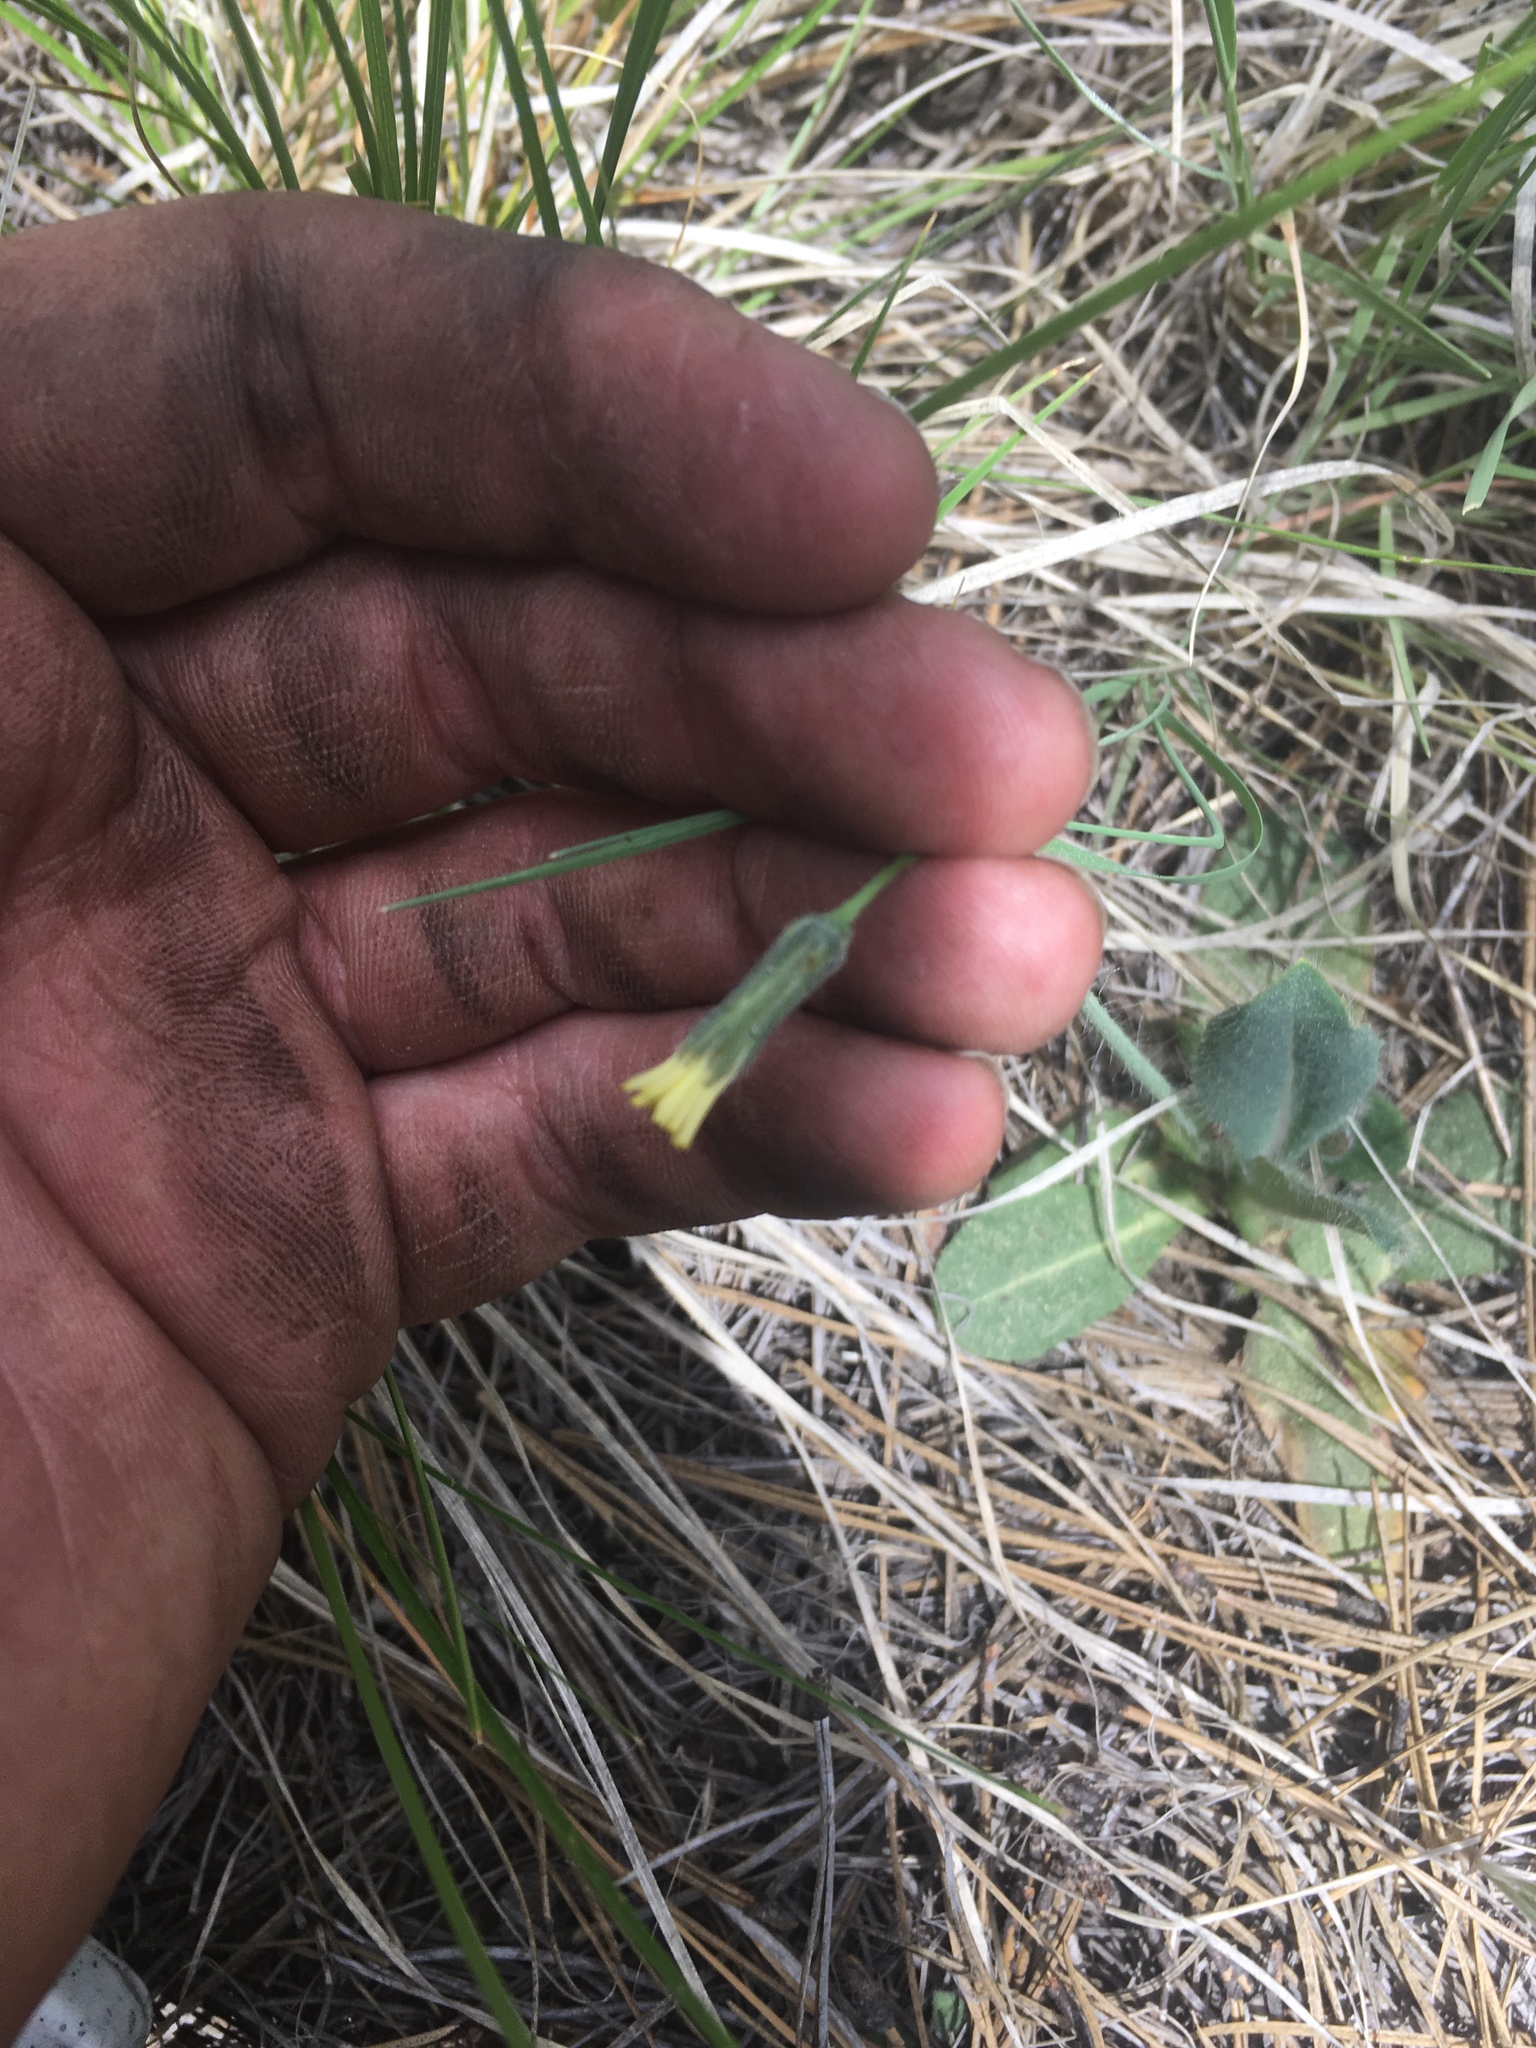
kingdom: Plantae
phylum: Tracheophyta
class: Magnoliopsida
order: Asterales
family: Asteraceae
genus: Hieracium
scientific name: Hieracium fendleri
